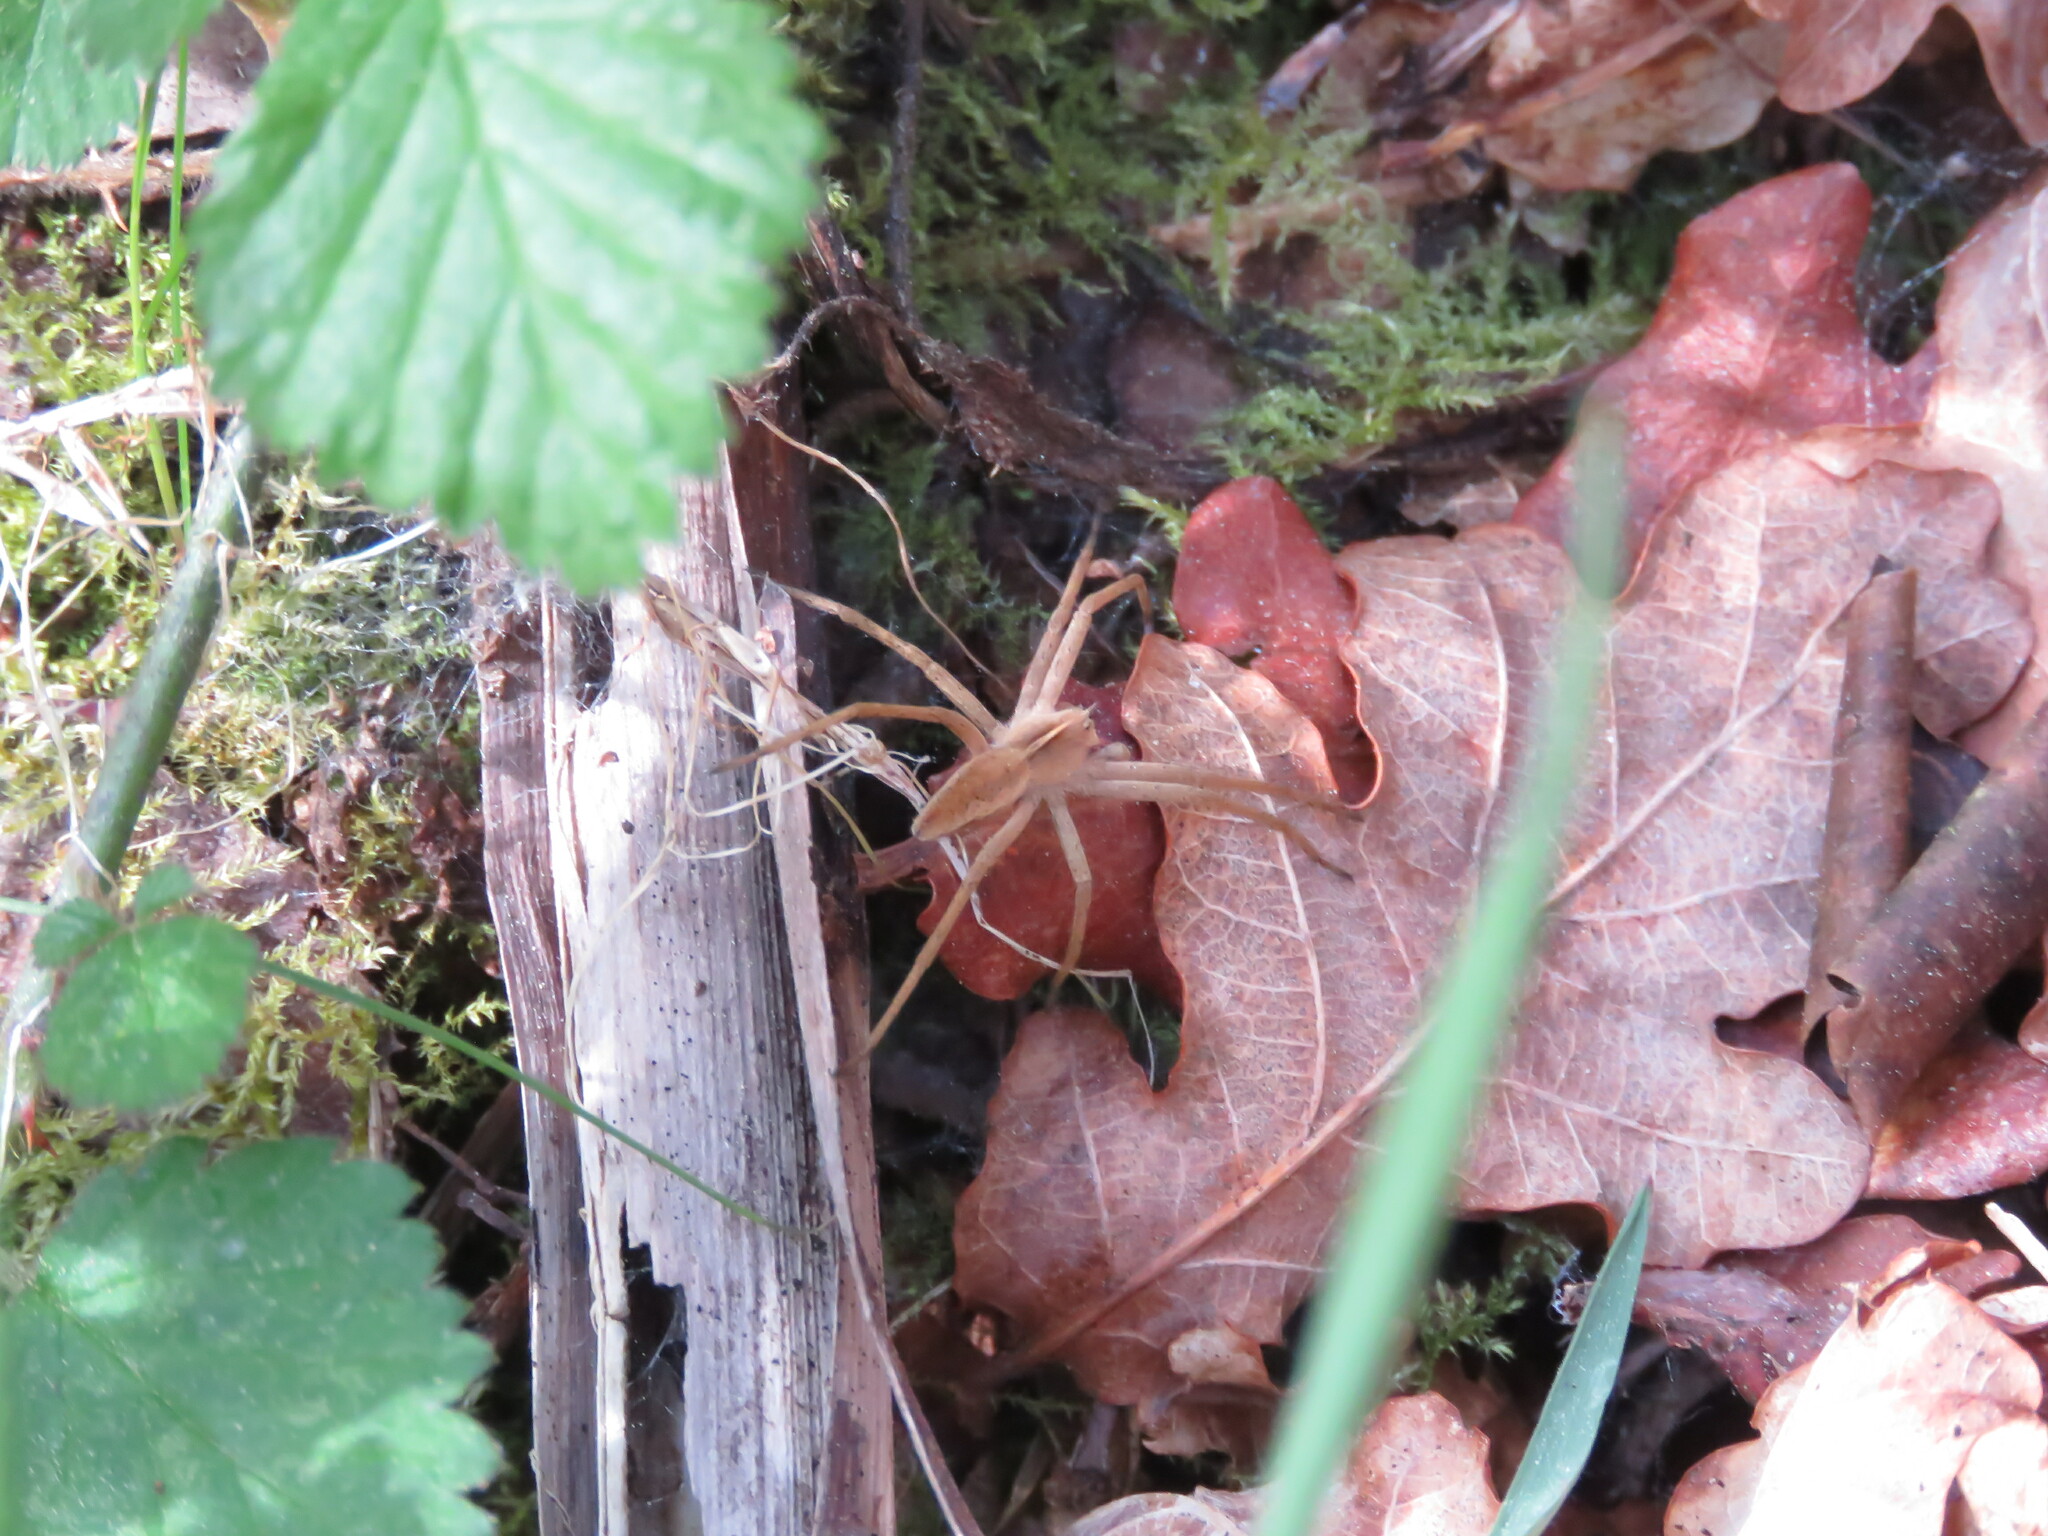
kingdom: Animalia
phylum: Arthropoda
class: Arachnida
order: Araneae
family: Pisauridae
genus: Pisaura
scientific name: Pisaura mirabilis
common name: Tent spider
